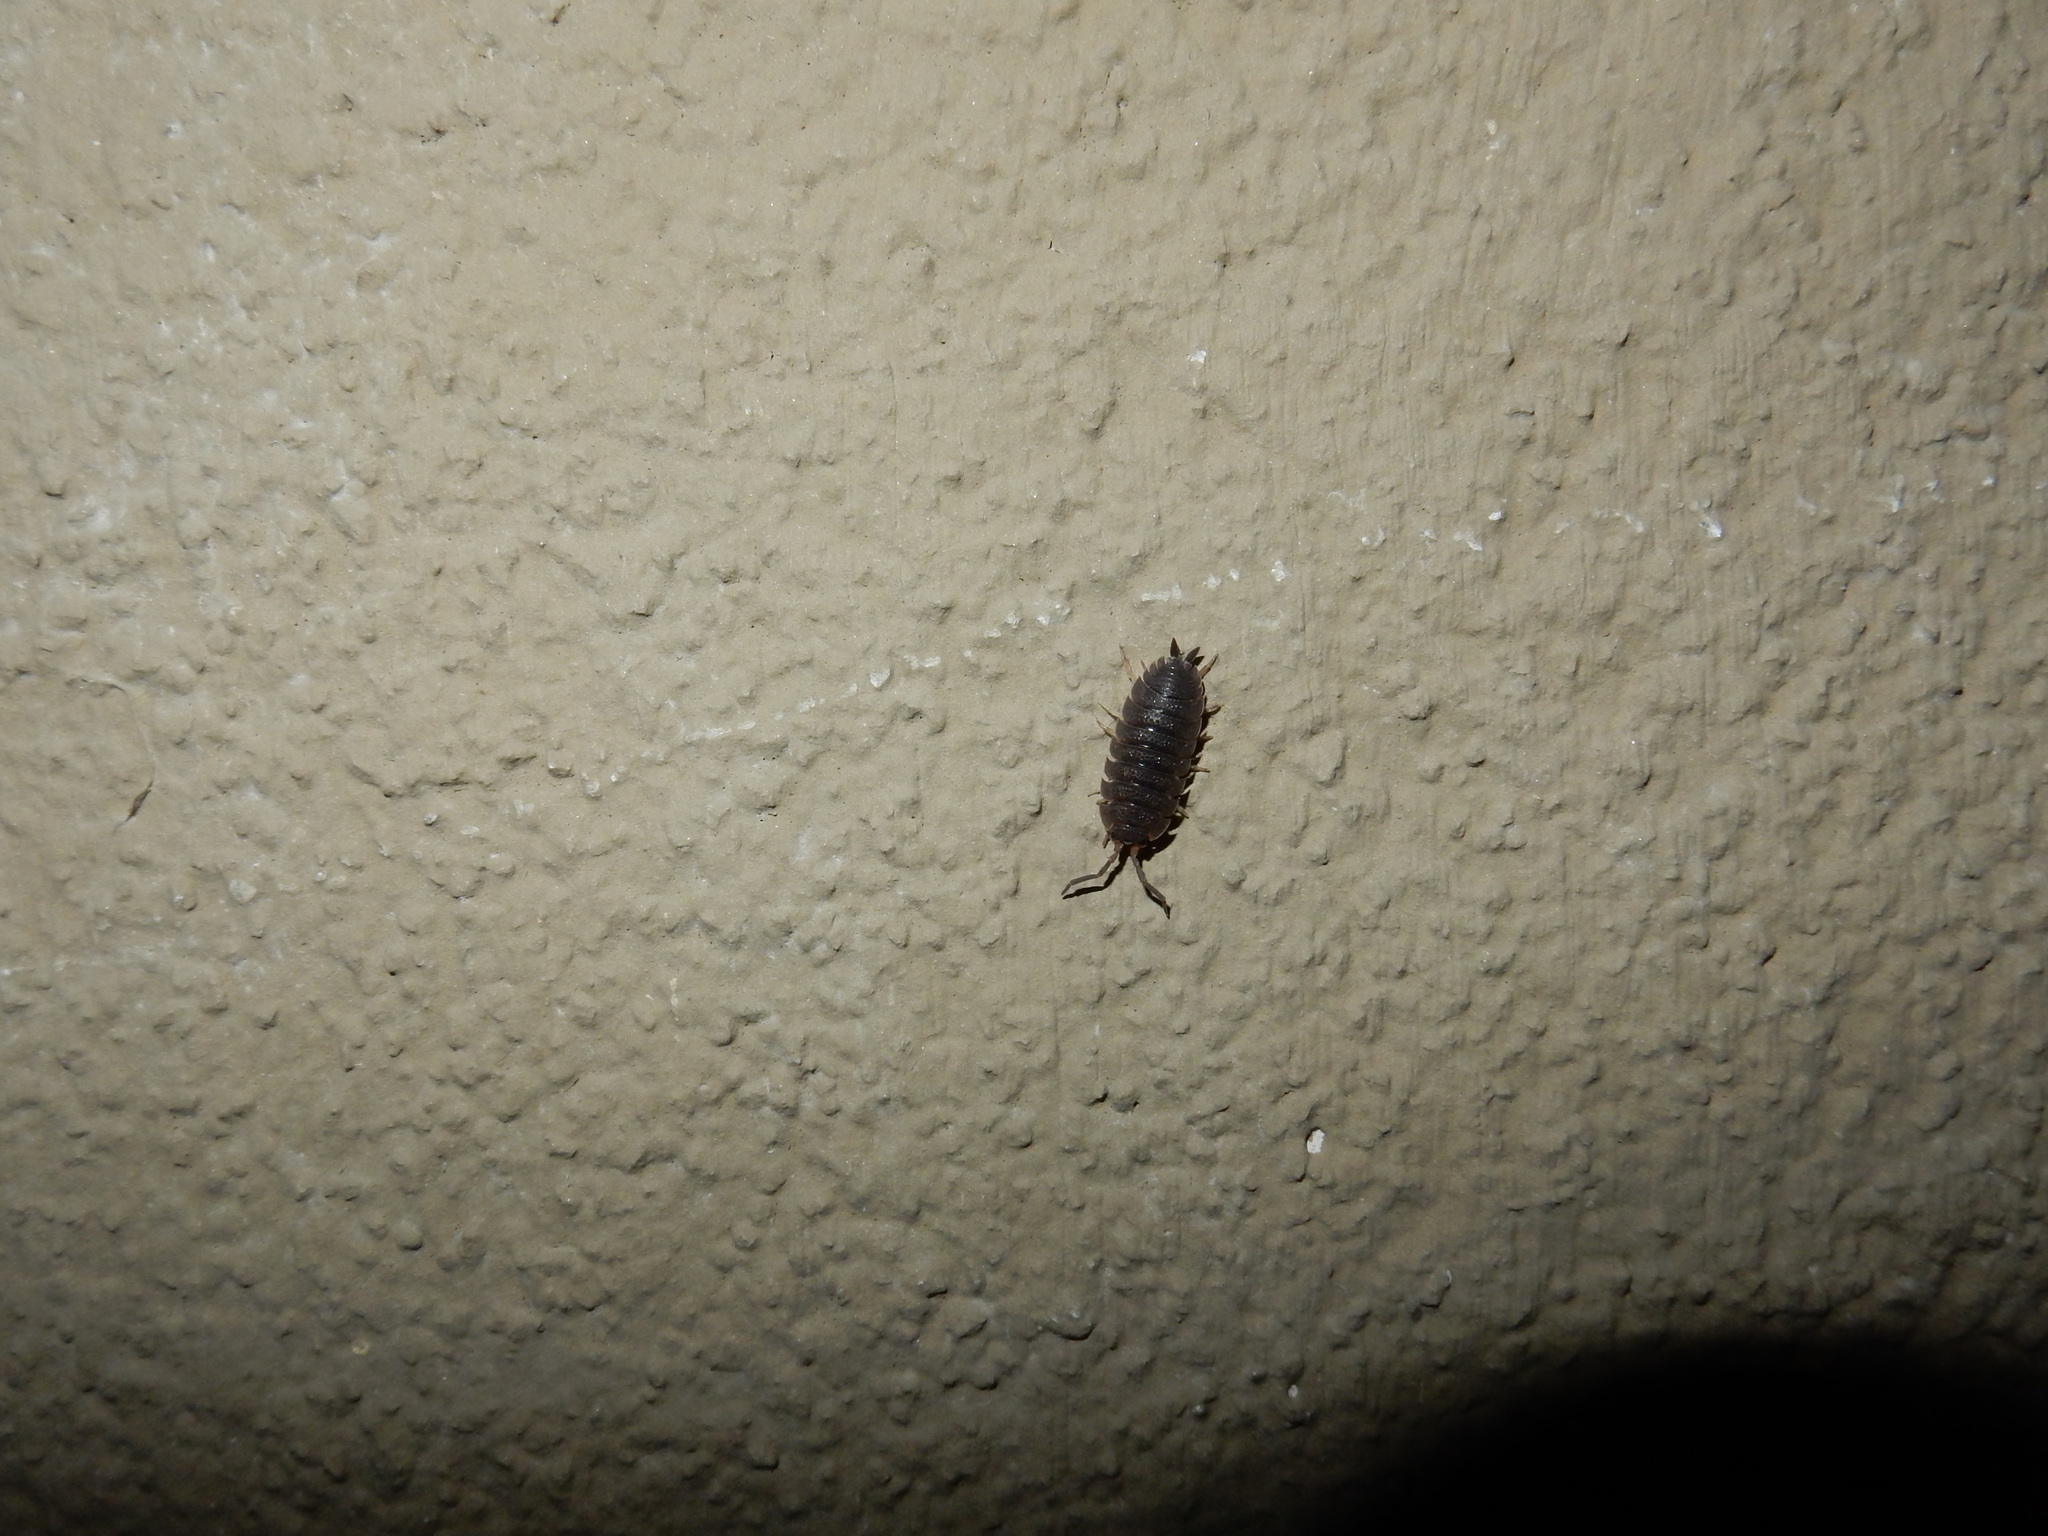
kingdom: Animalia
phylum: Arthropoda
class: Malacostraca
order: Isopoda
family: Porcellionidae
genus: Porcellio
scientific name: Porcellio scaber
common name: Common rough woodlouse
